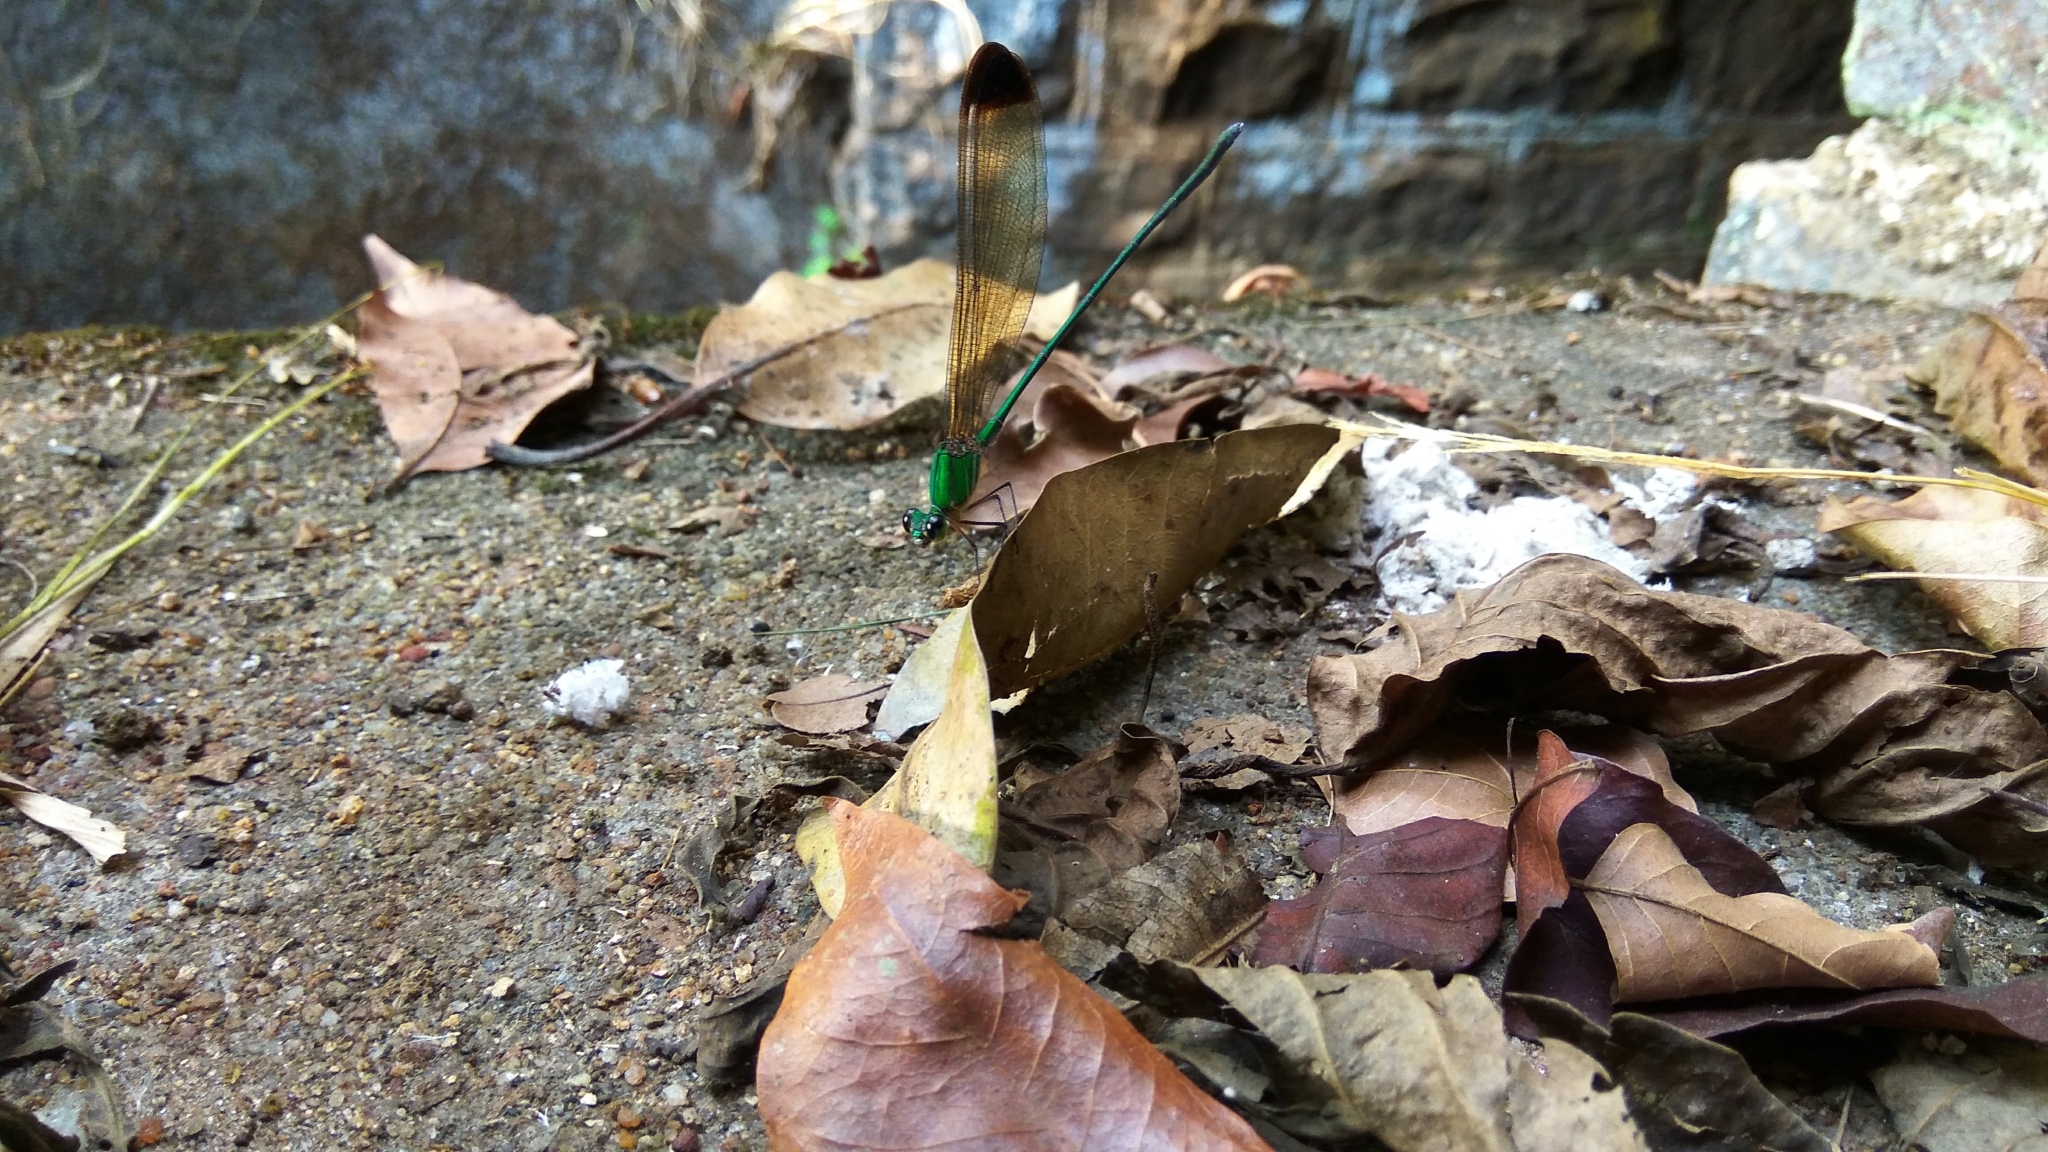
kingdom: Animalia
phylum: Arthropoda
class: Insecta
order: Odonata
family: Calopterygidae
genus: Vestalis
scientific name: Vestalis apicalis
